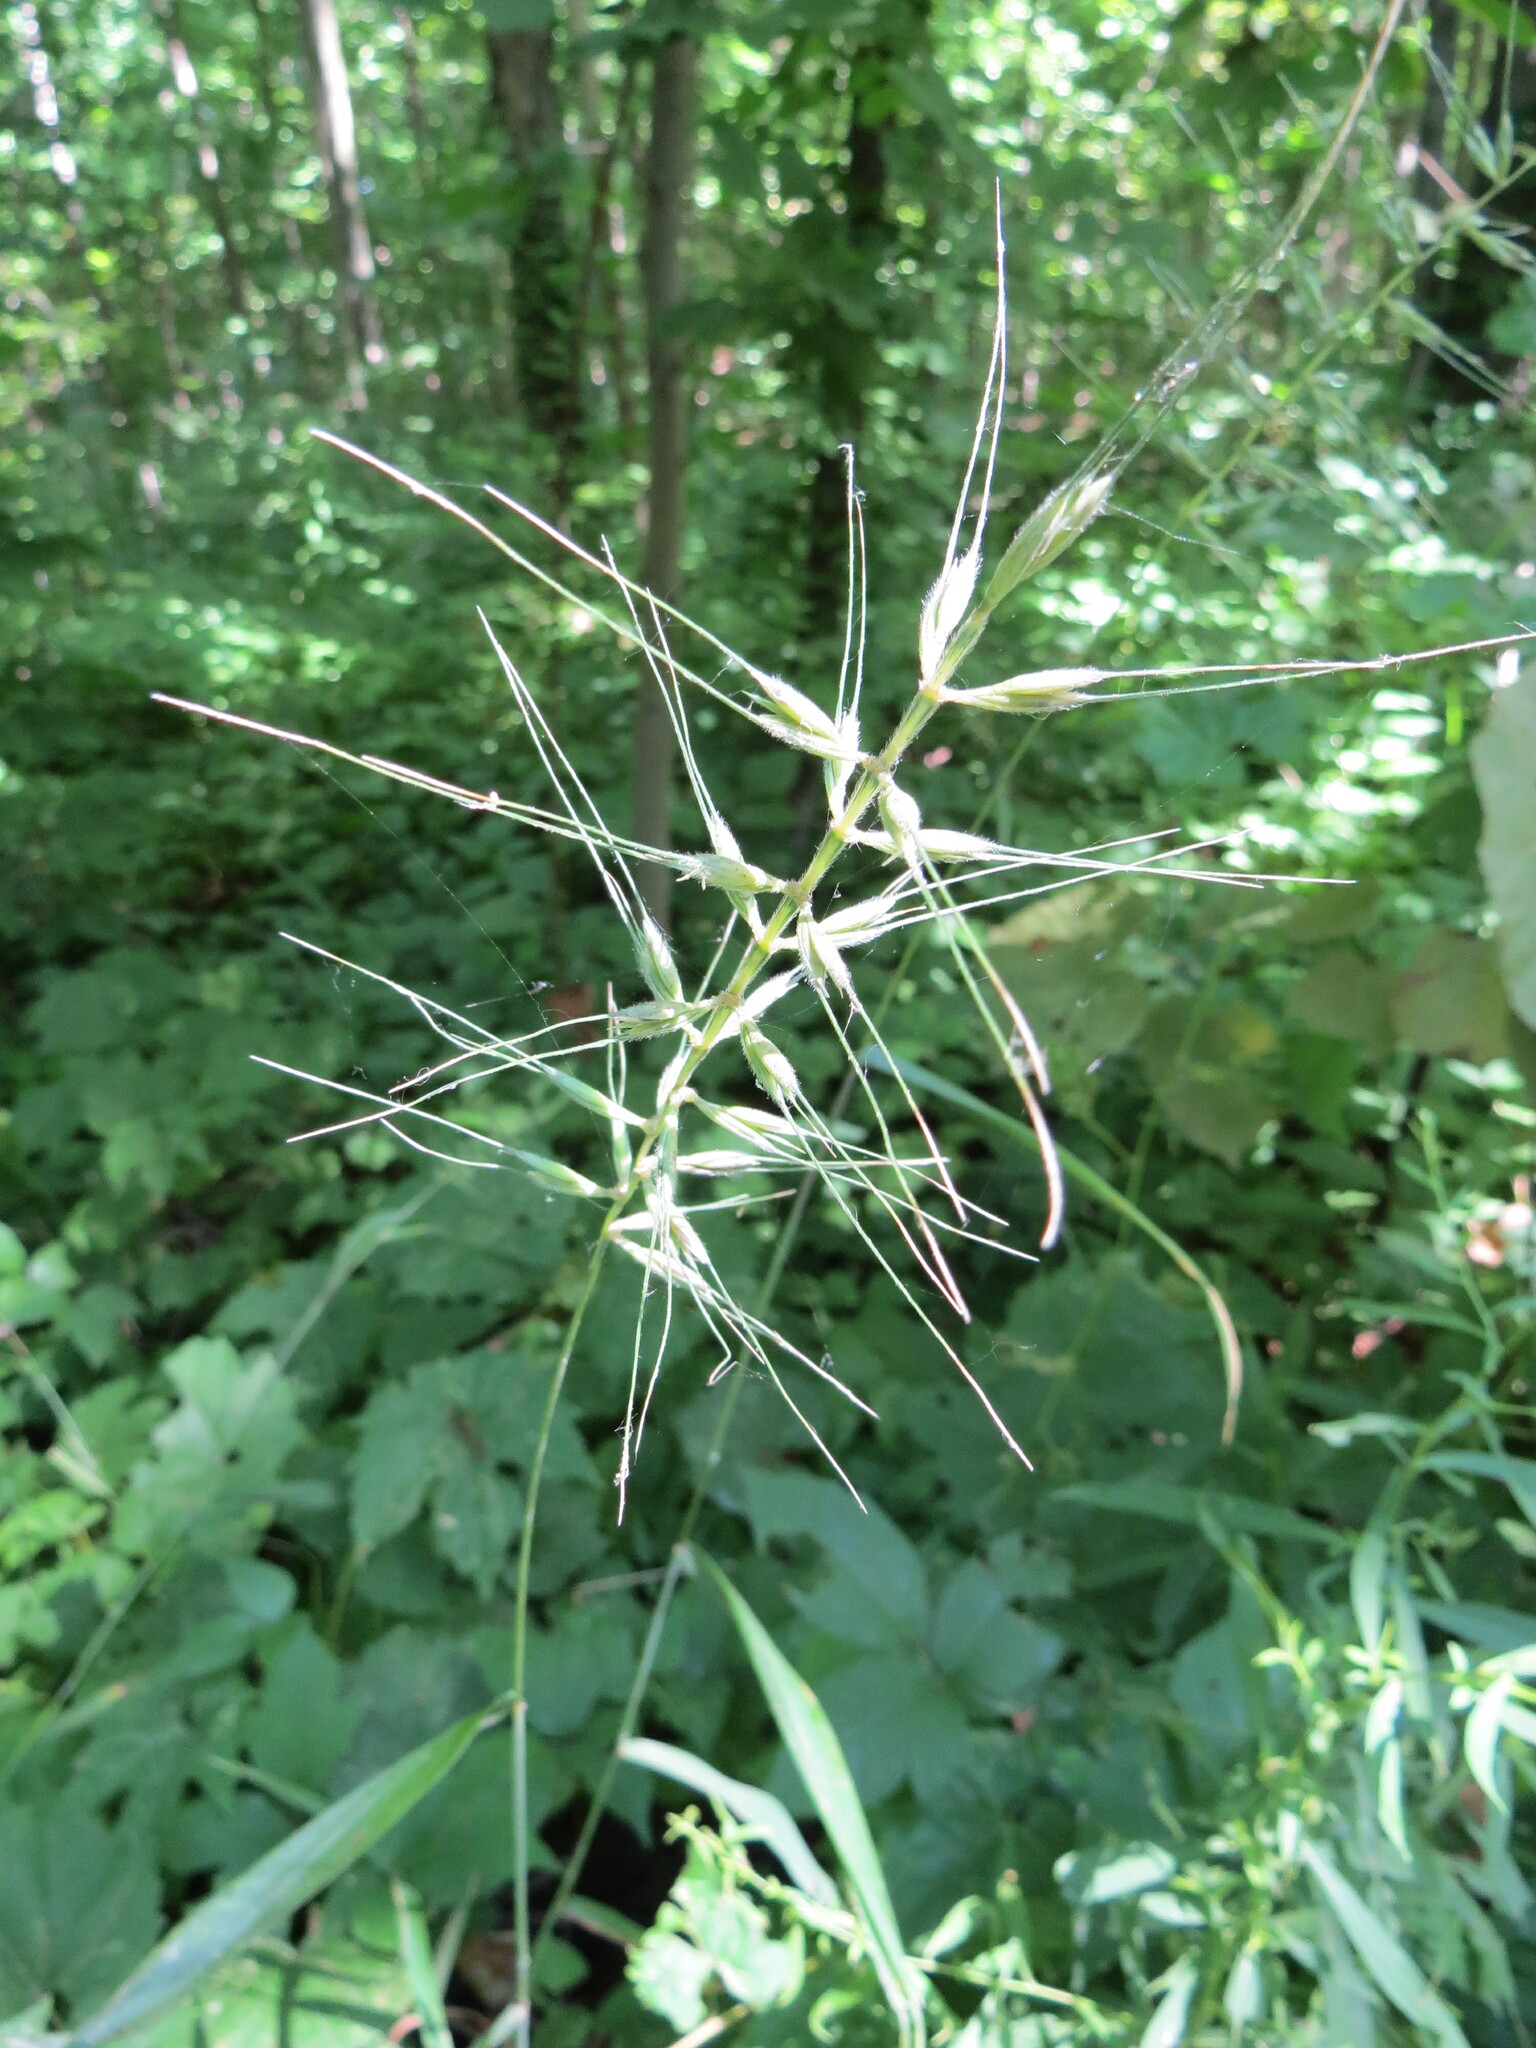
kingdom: Plantae
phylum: Tracheophyta
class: Liliopsida
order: Poales
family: Poaceae
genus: Elymus
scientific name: Elymus hystrix
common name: Bottlebrush grass
